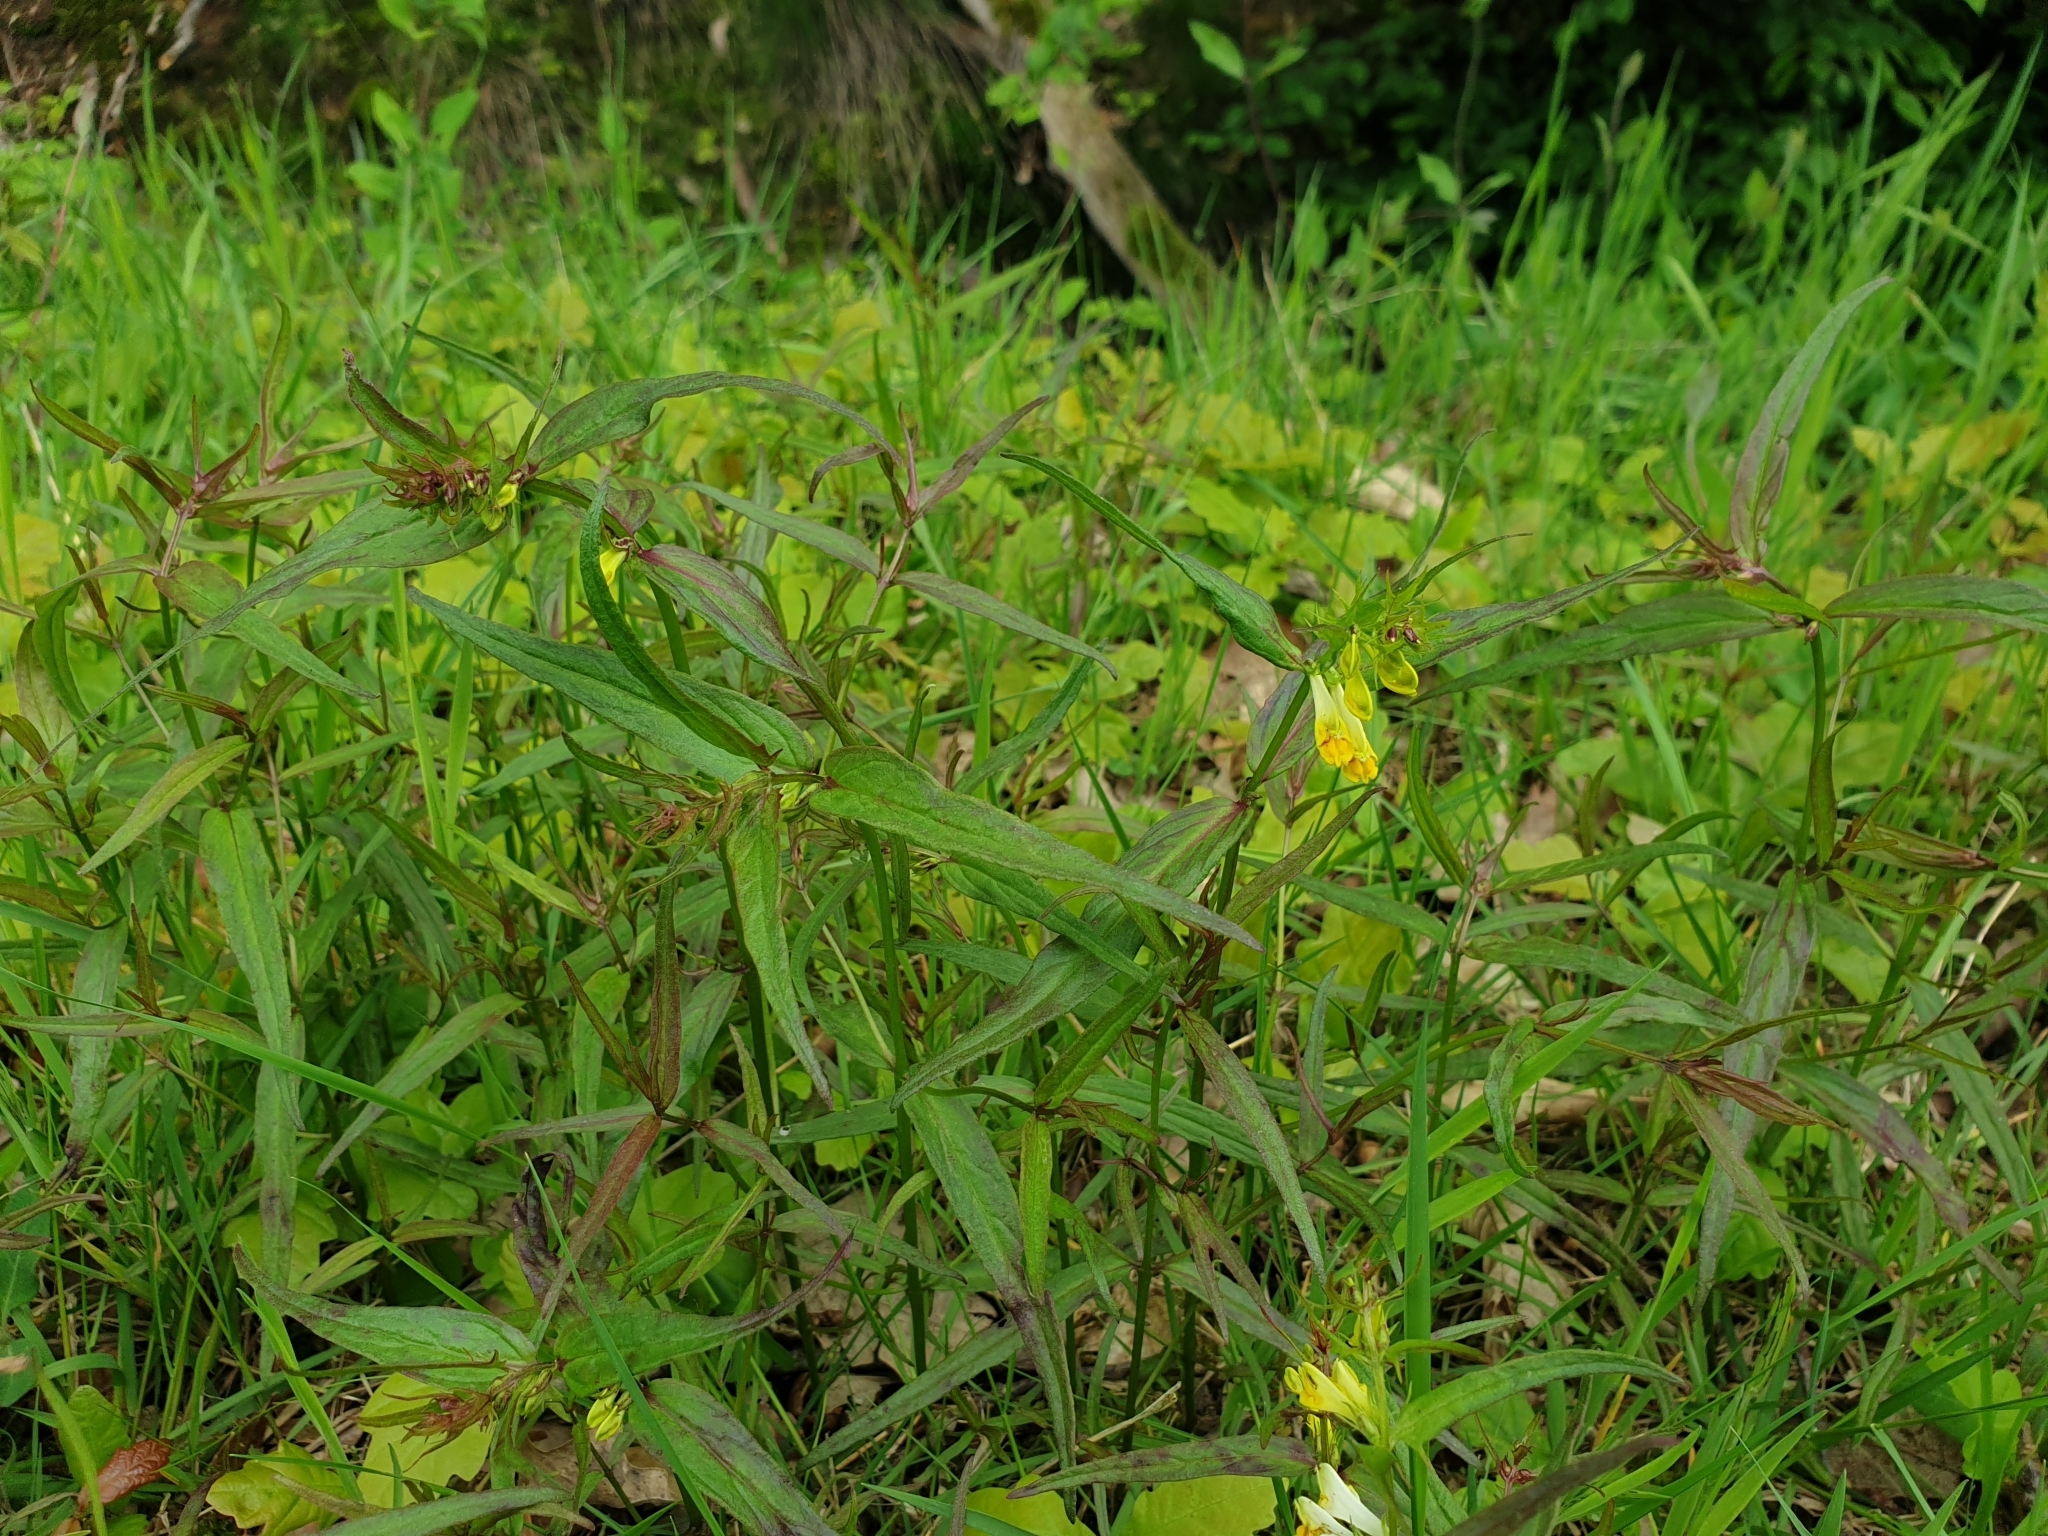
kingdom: Plantae
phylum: Tracheophyta
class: Magnoliopsida
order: Lamiales
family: Orobanchaceae
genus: Melampyrum
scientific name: Melampyrum pratense
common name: Common cow-wheat
